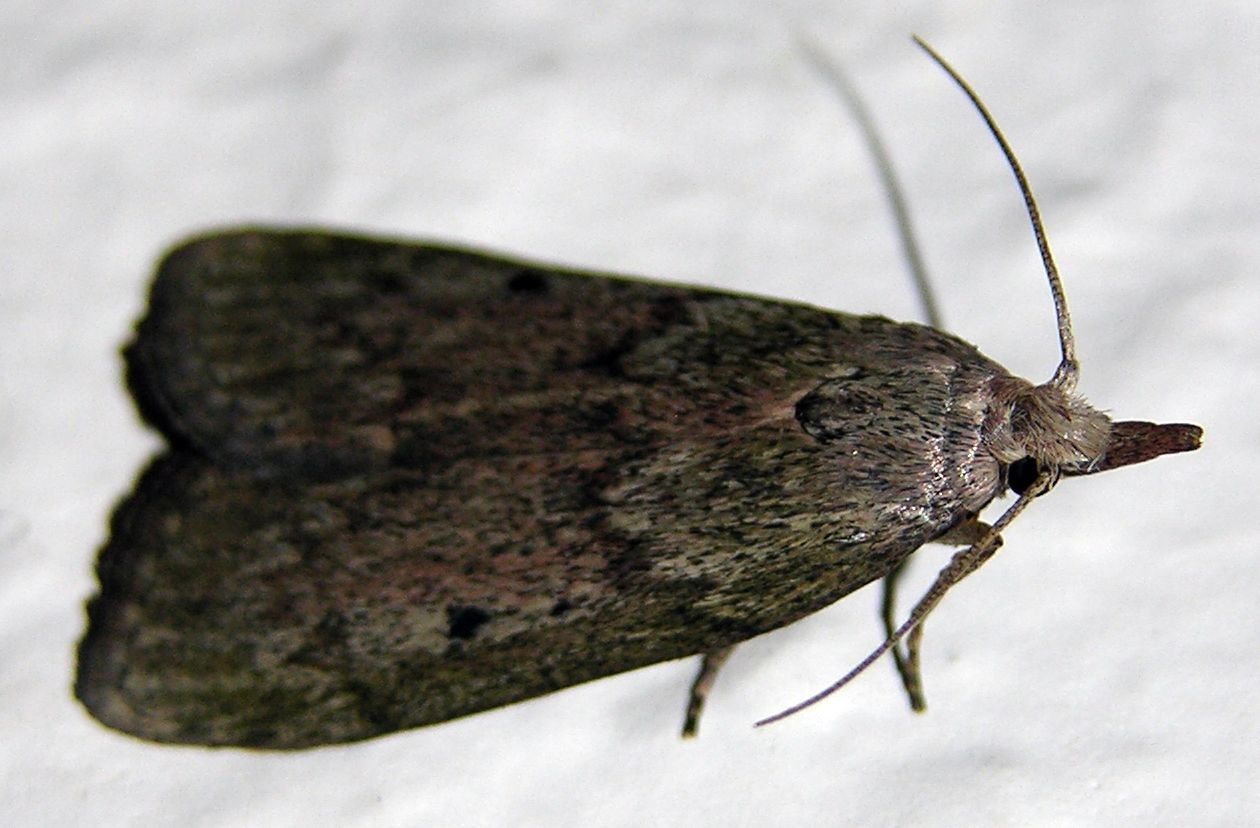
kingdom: Animalia
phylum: Arthropoda
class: Insecta
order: Lepidoptera
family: Pyralidae
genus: Aphomia
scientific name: Aphomia sociella
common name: Bee moth
